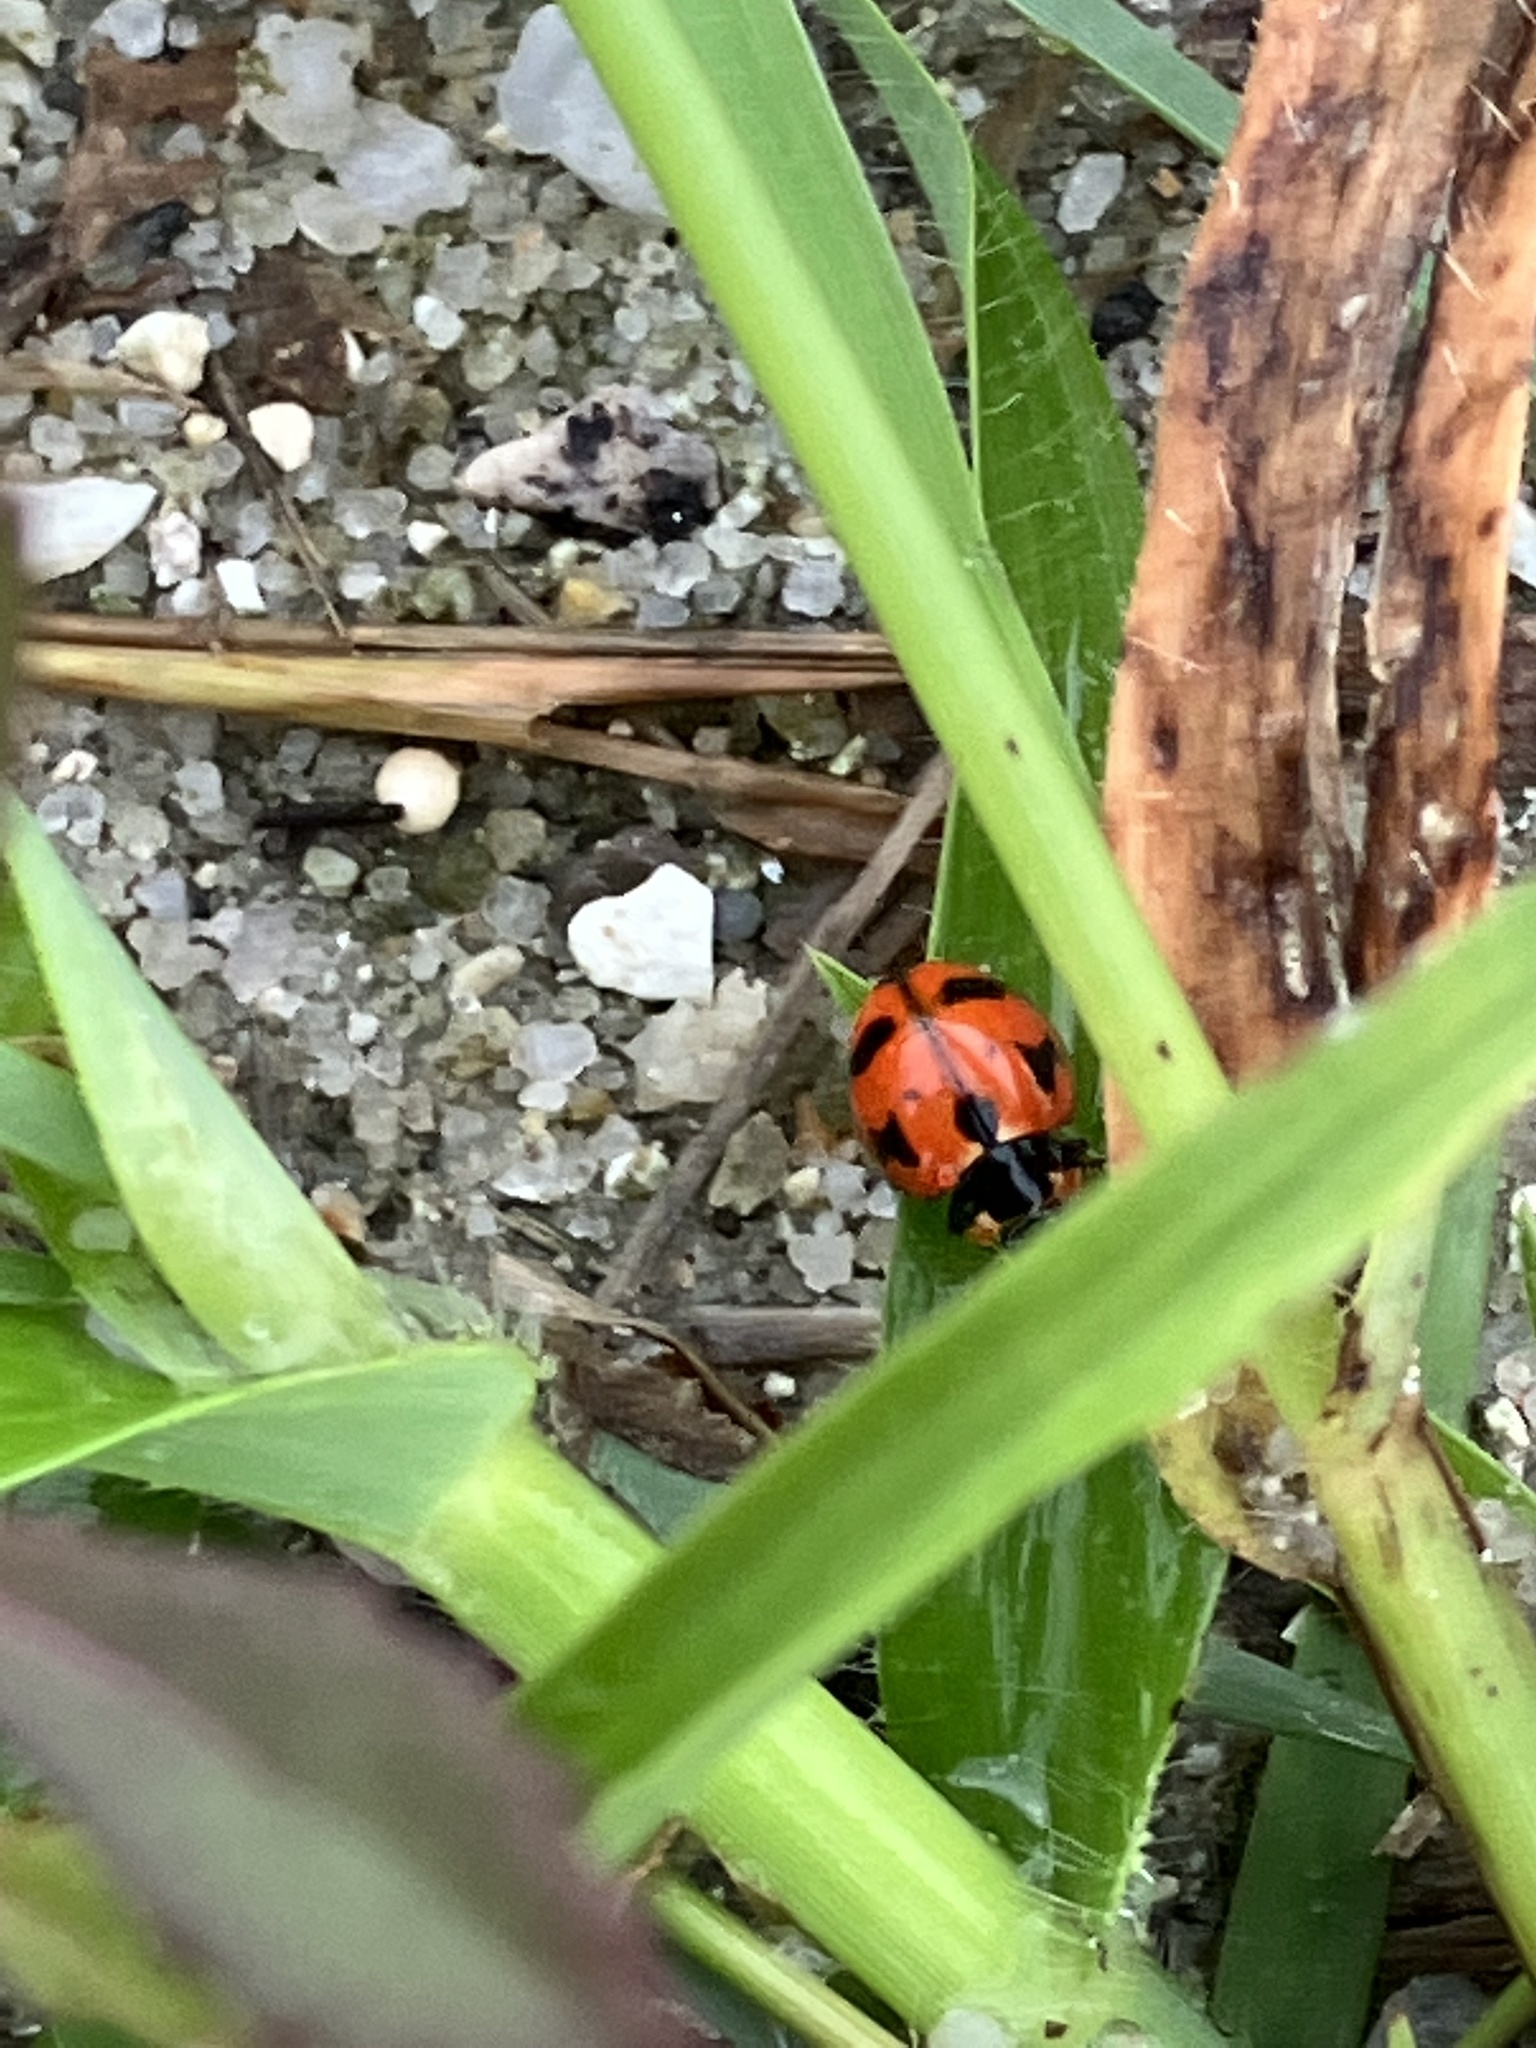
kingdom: Animalia
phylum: Arthropoda
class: Insecta
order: Coleoptera
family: Coccinellidae
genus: Coccinella
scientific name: Coccinella transversalis
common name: Transverse lady beetle
